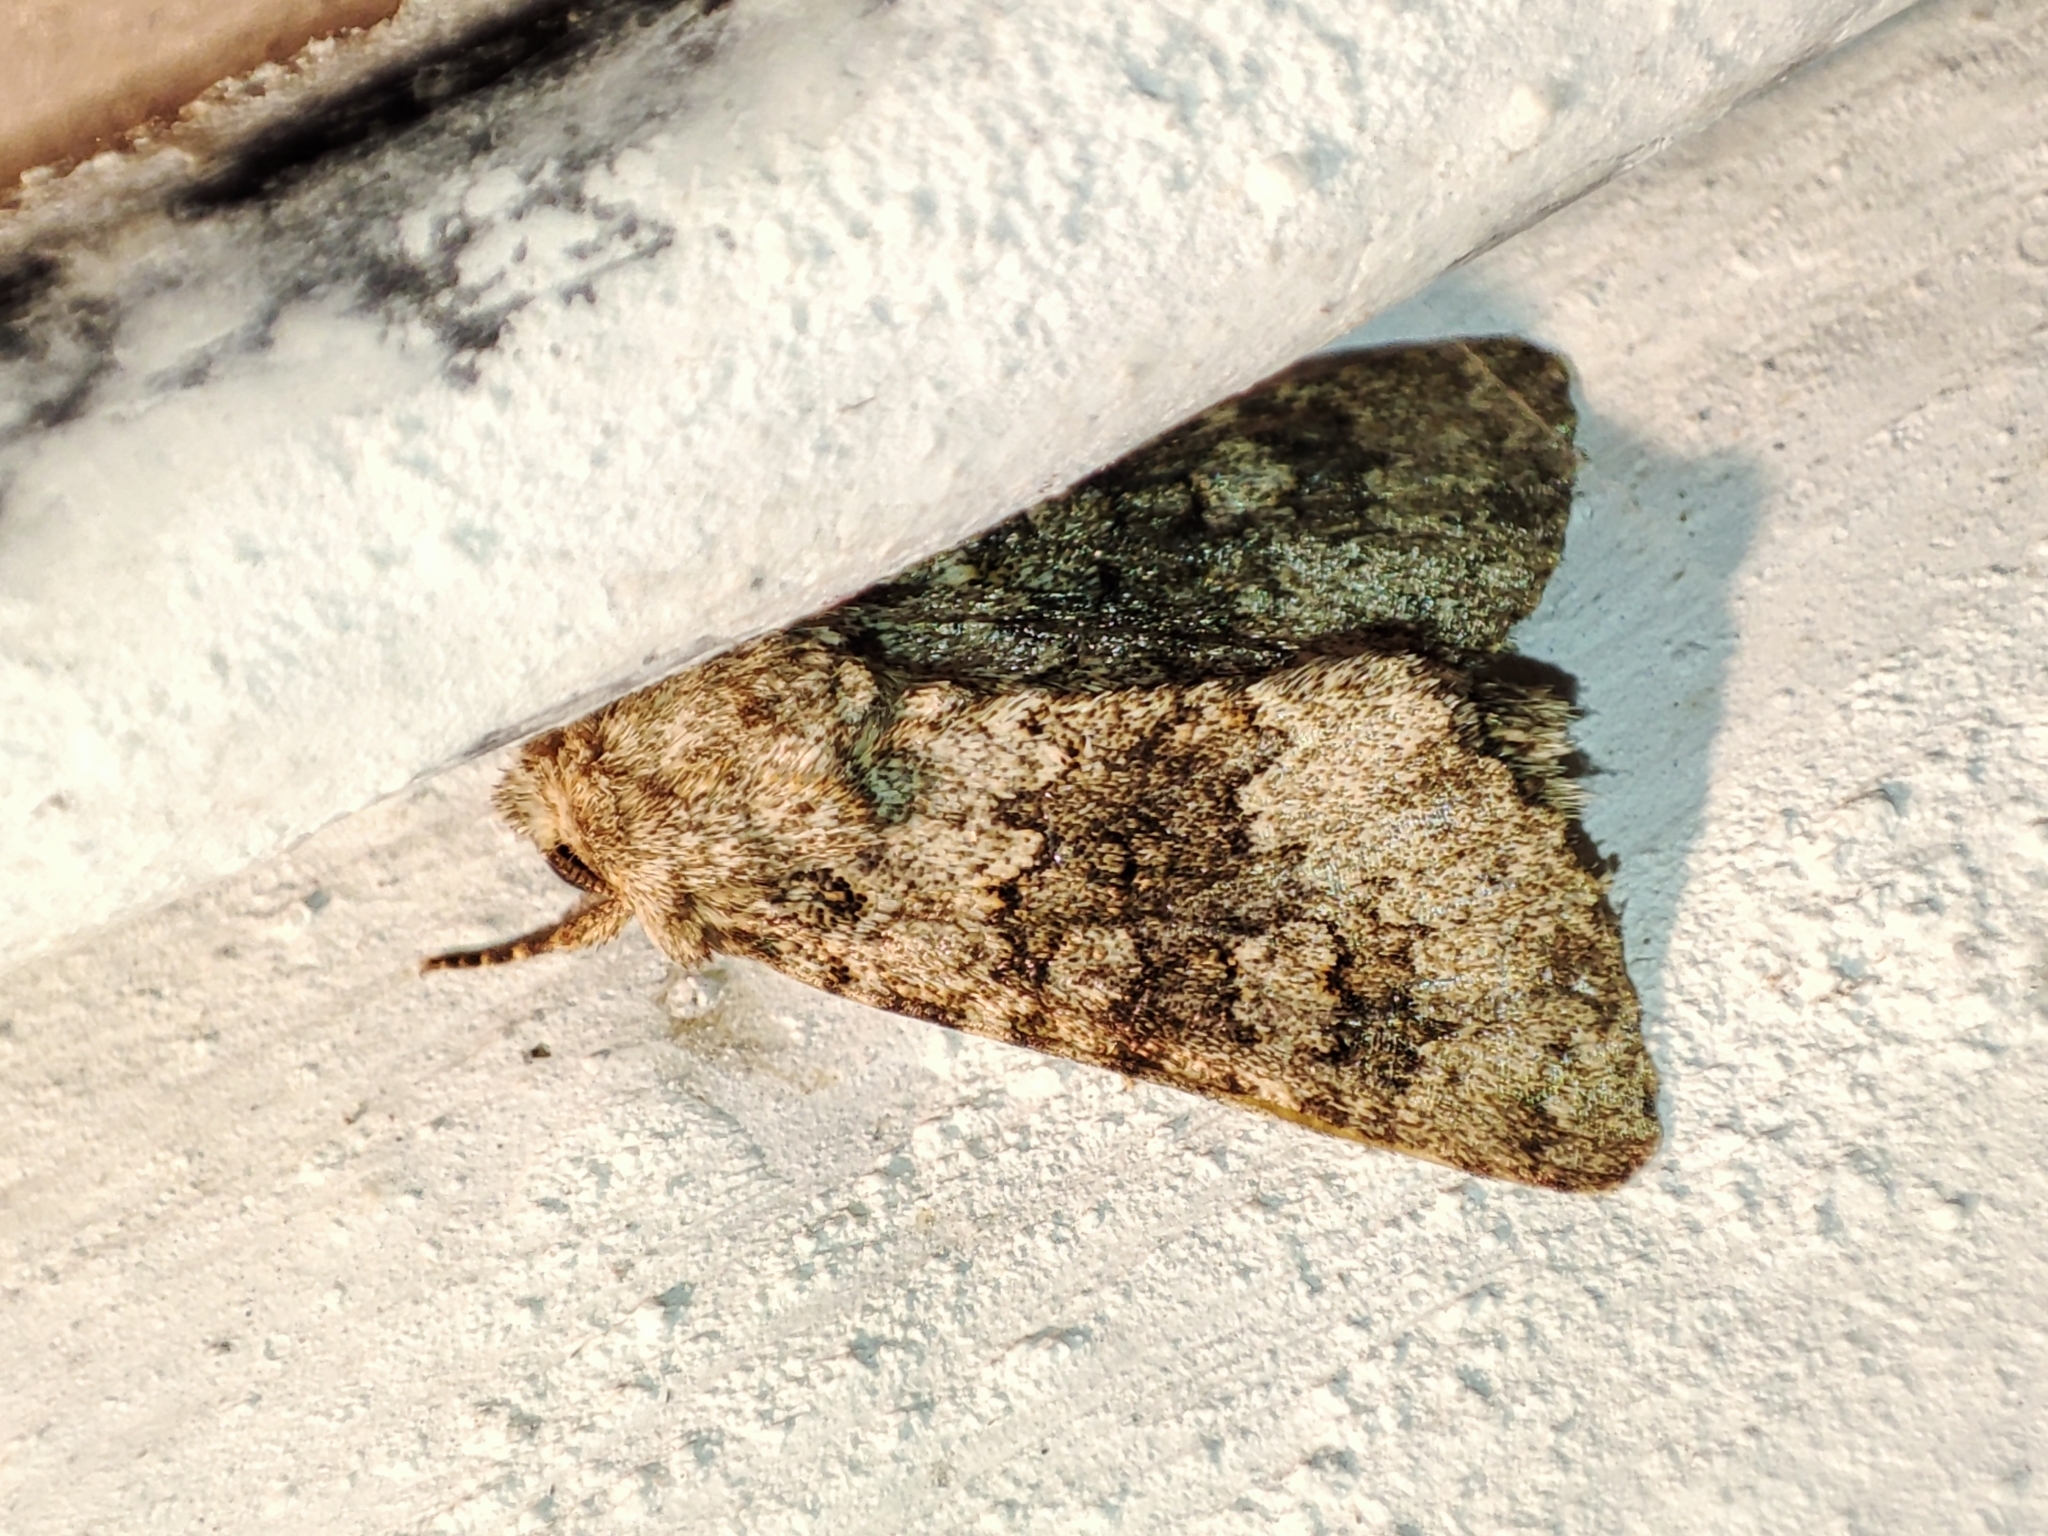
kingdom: Animalia
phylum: Arthropoda
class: Insecta
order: Lepidoptera
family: Noctuidae
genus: Hecatera
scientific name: Hecatera dysodea
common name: Small ranunculus
